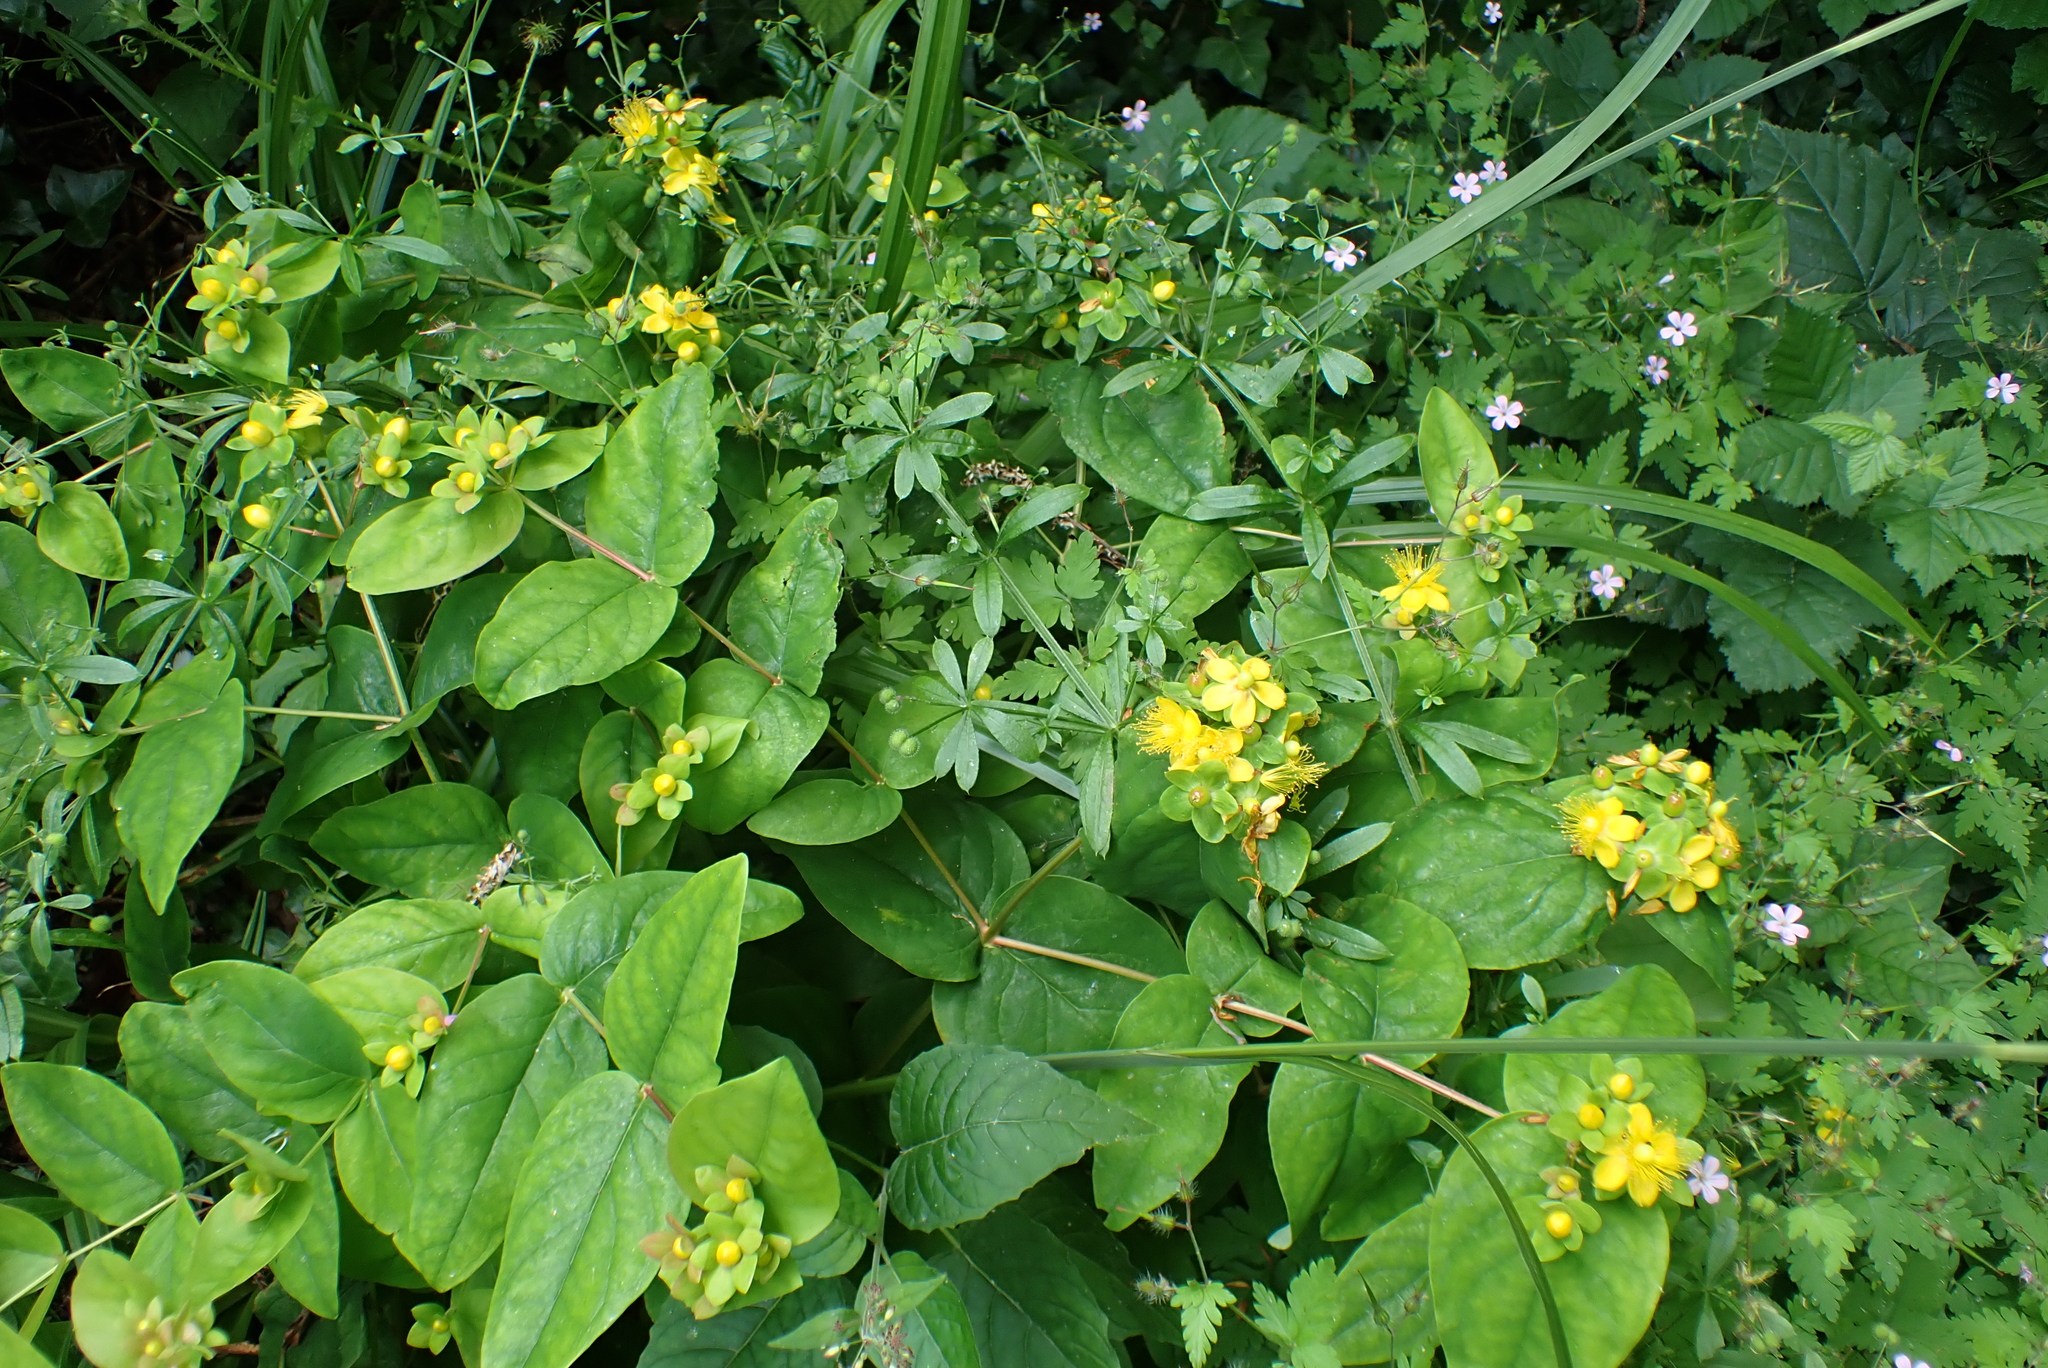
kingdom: Plantae
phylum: Tracheophyta
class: Magnoliopsida
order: Malpighiales
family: Hypericaceae
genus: Hypericum
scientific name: Hypericum androsaemum
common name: Sweet-amber
